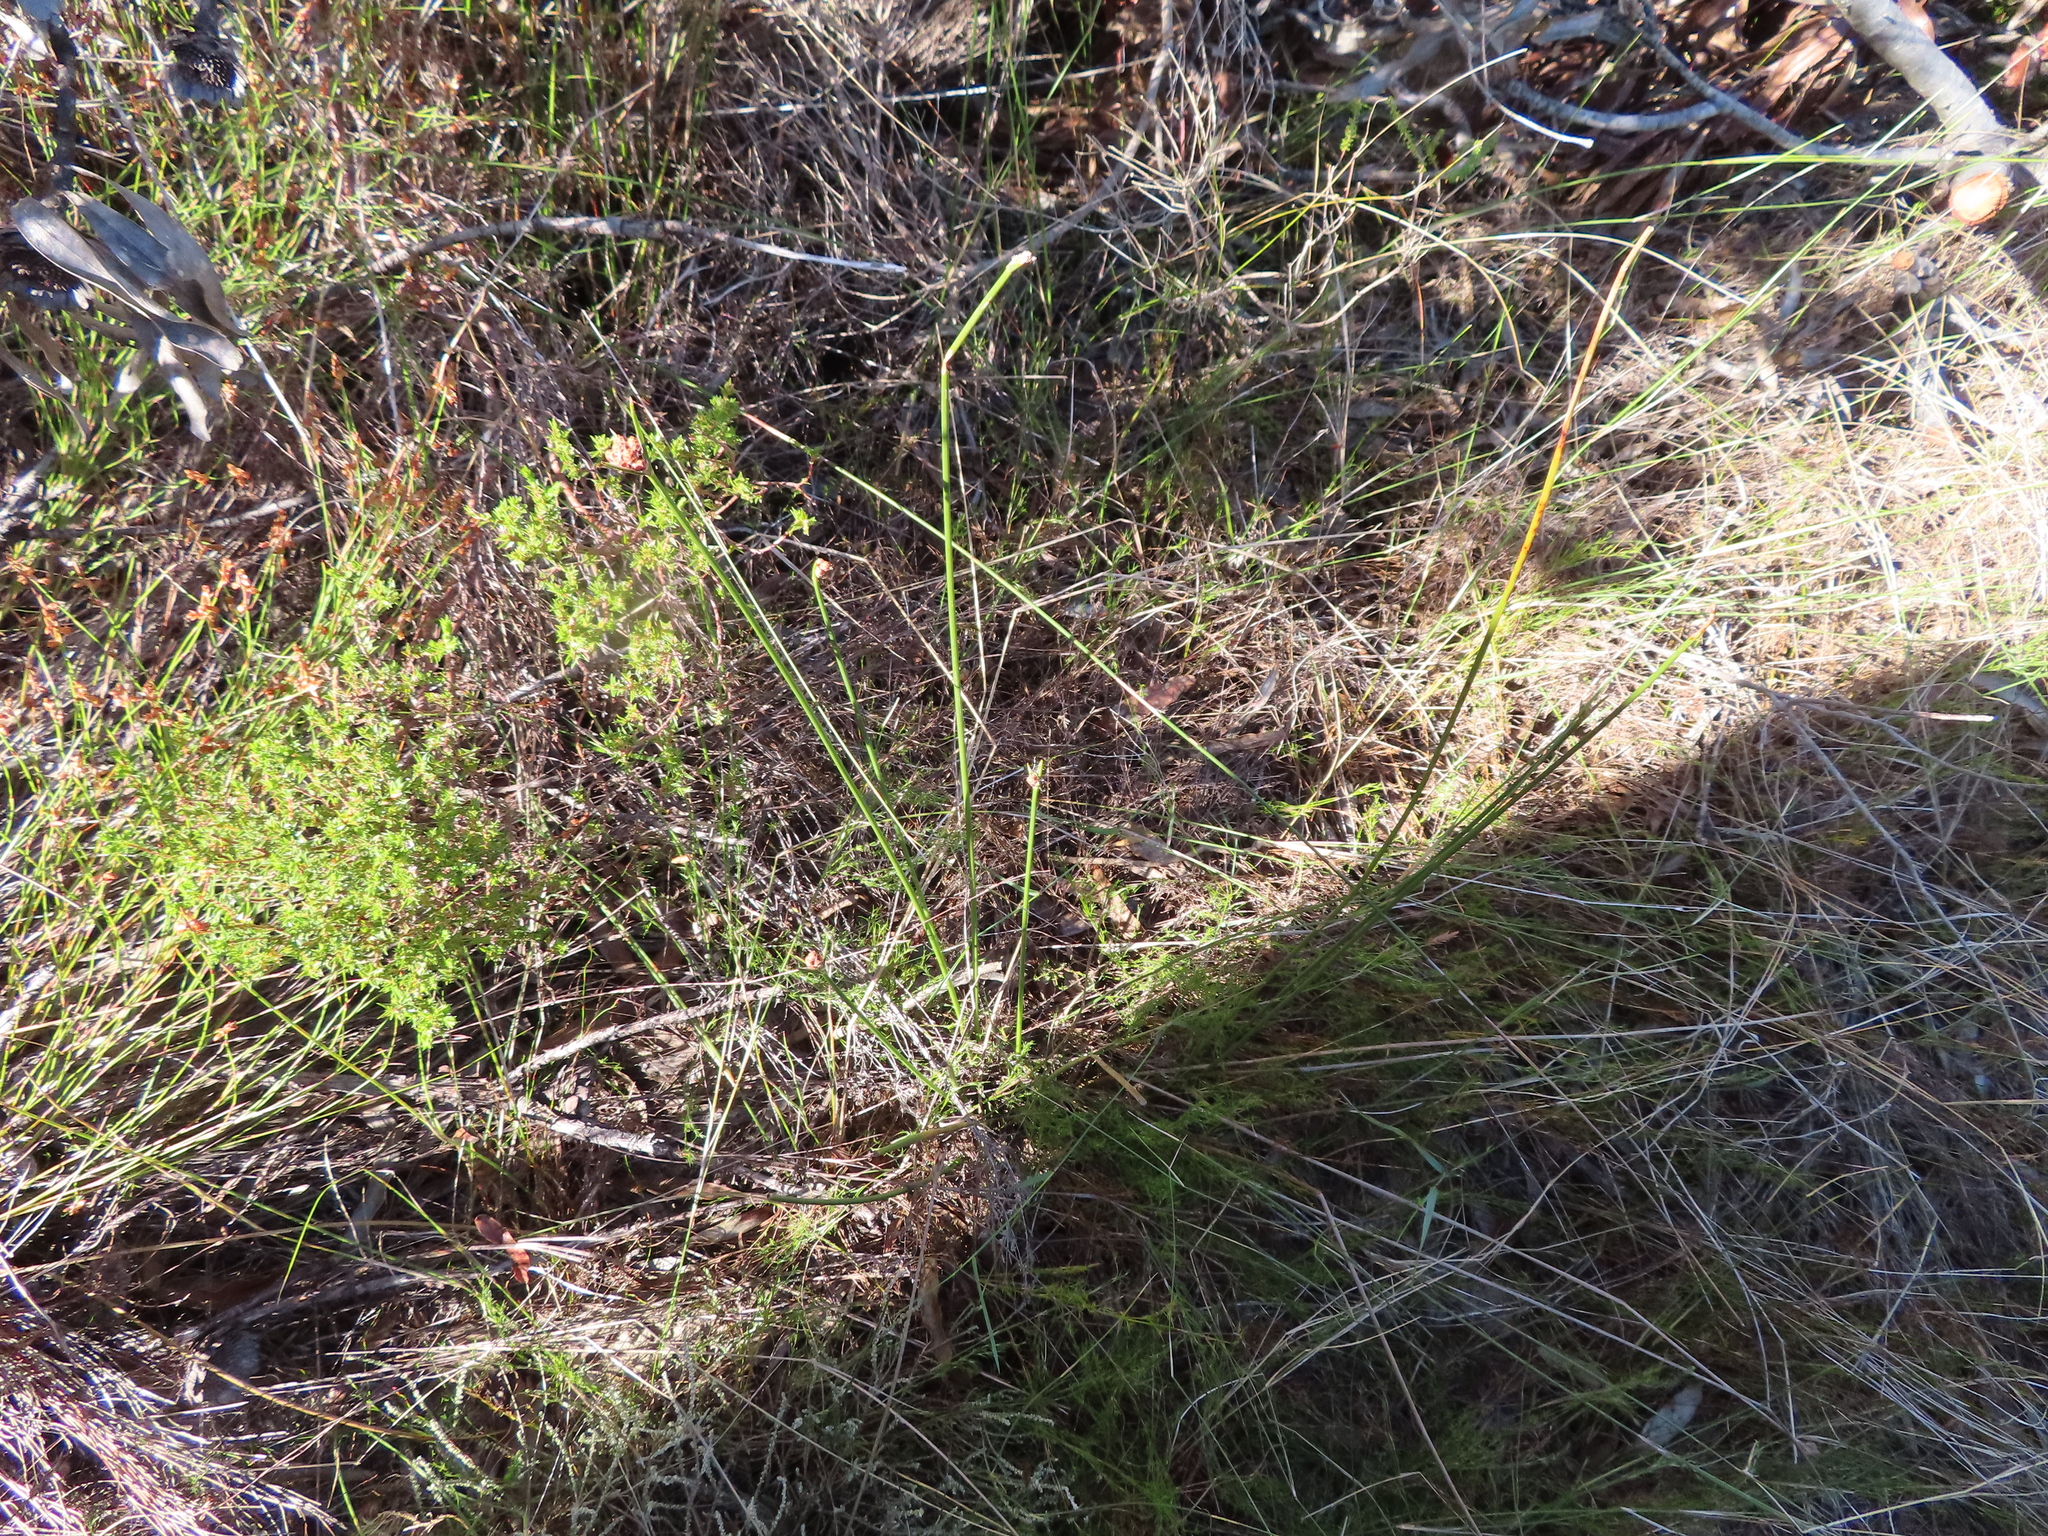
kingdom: Plantae
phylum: Tracheophyta
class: Liliopsida
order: Poales
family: Cyperaceae
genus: Hellmuthia
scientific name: Hellmuthia membranacea
